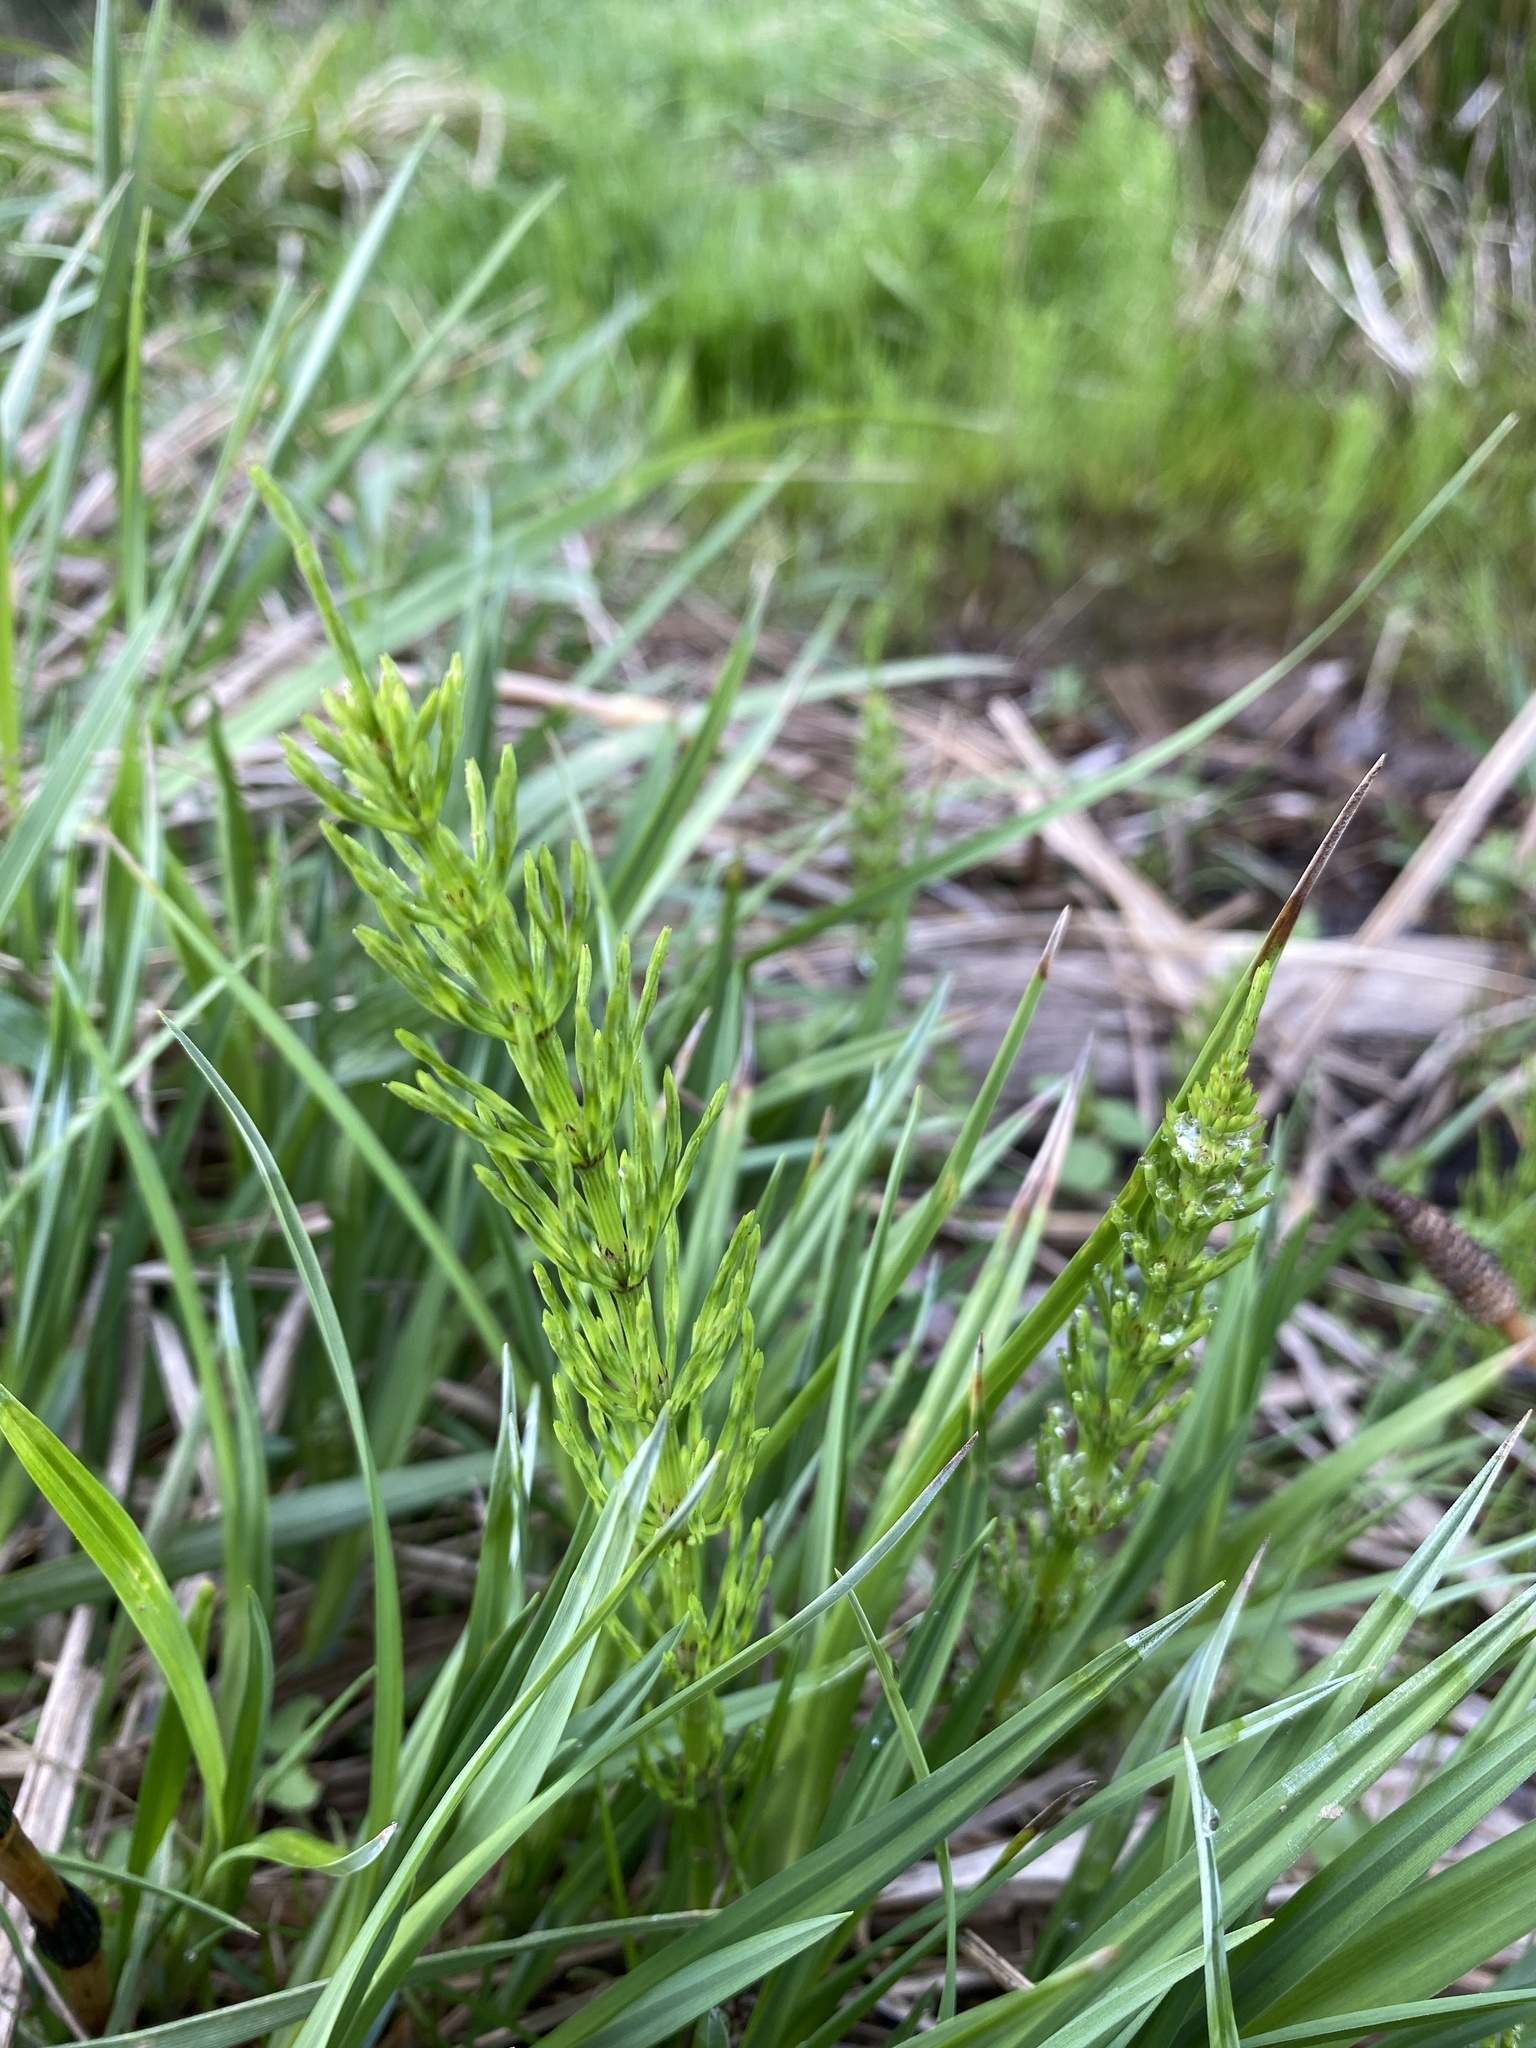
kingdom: Plantae
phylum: Tracheophyta
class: Polypodiopsida
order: Equisetales
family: Equisetaceae
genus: Equisetum
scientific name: Equisetum arvense
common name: Field horsetail
